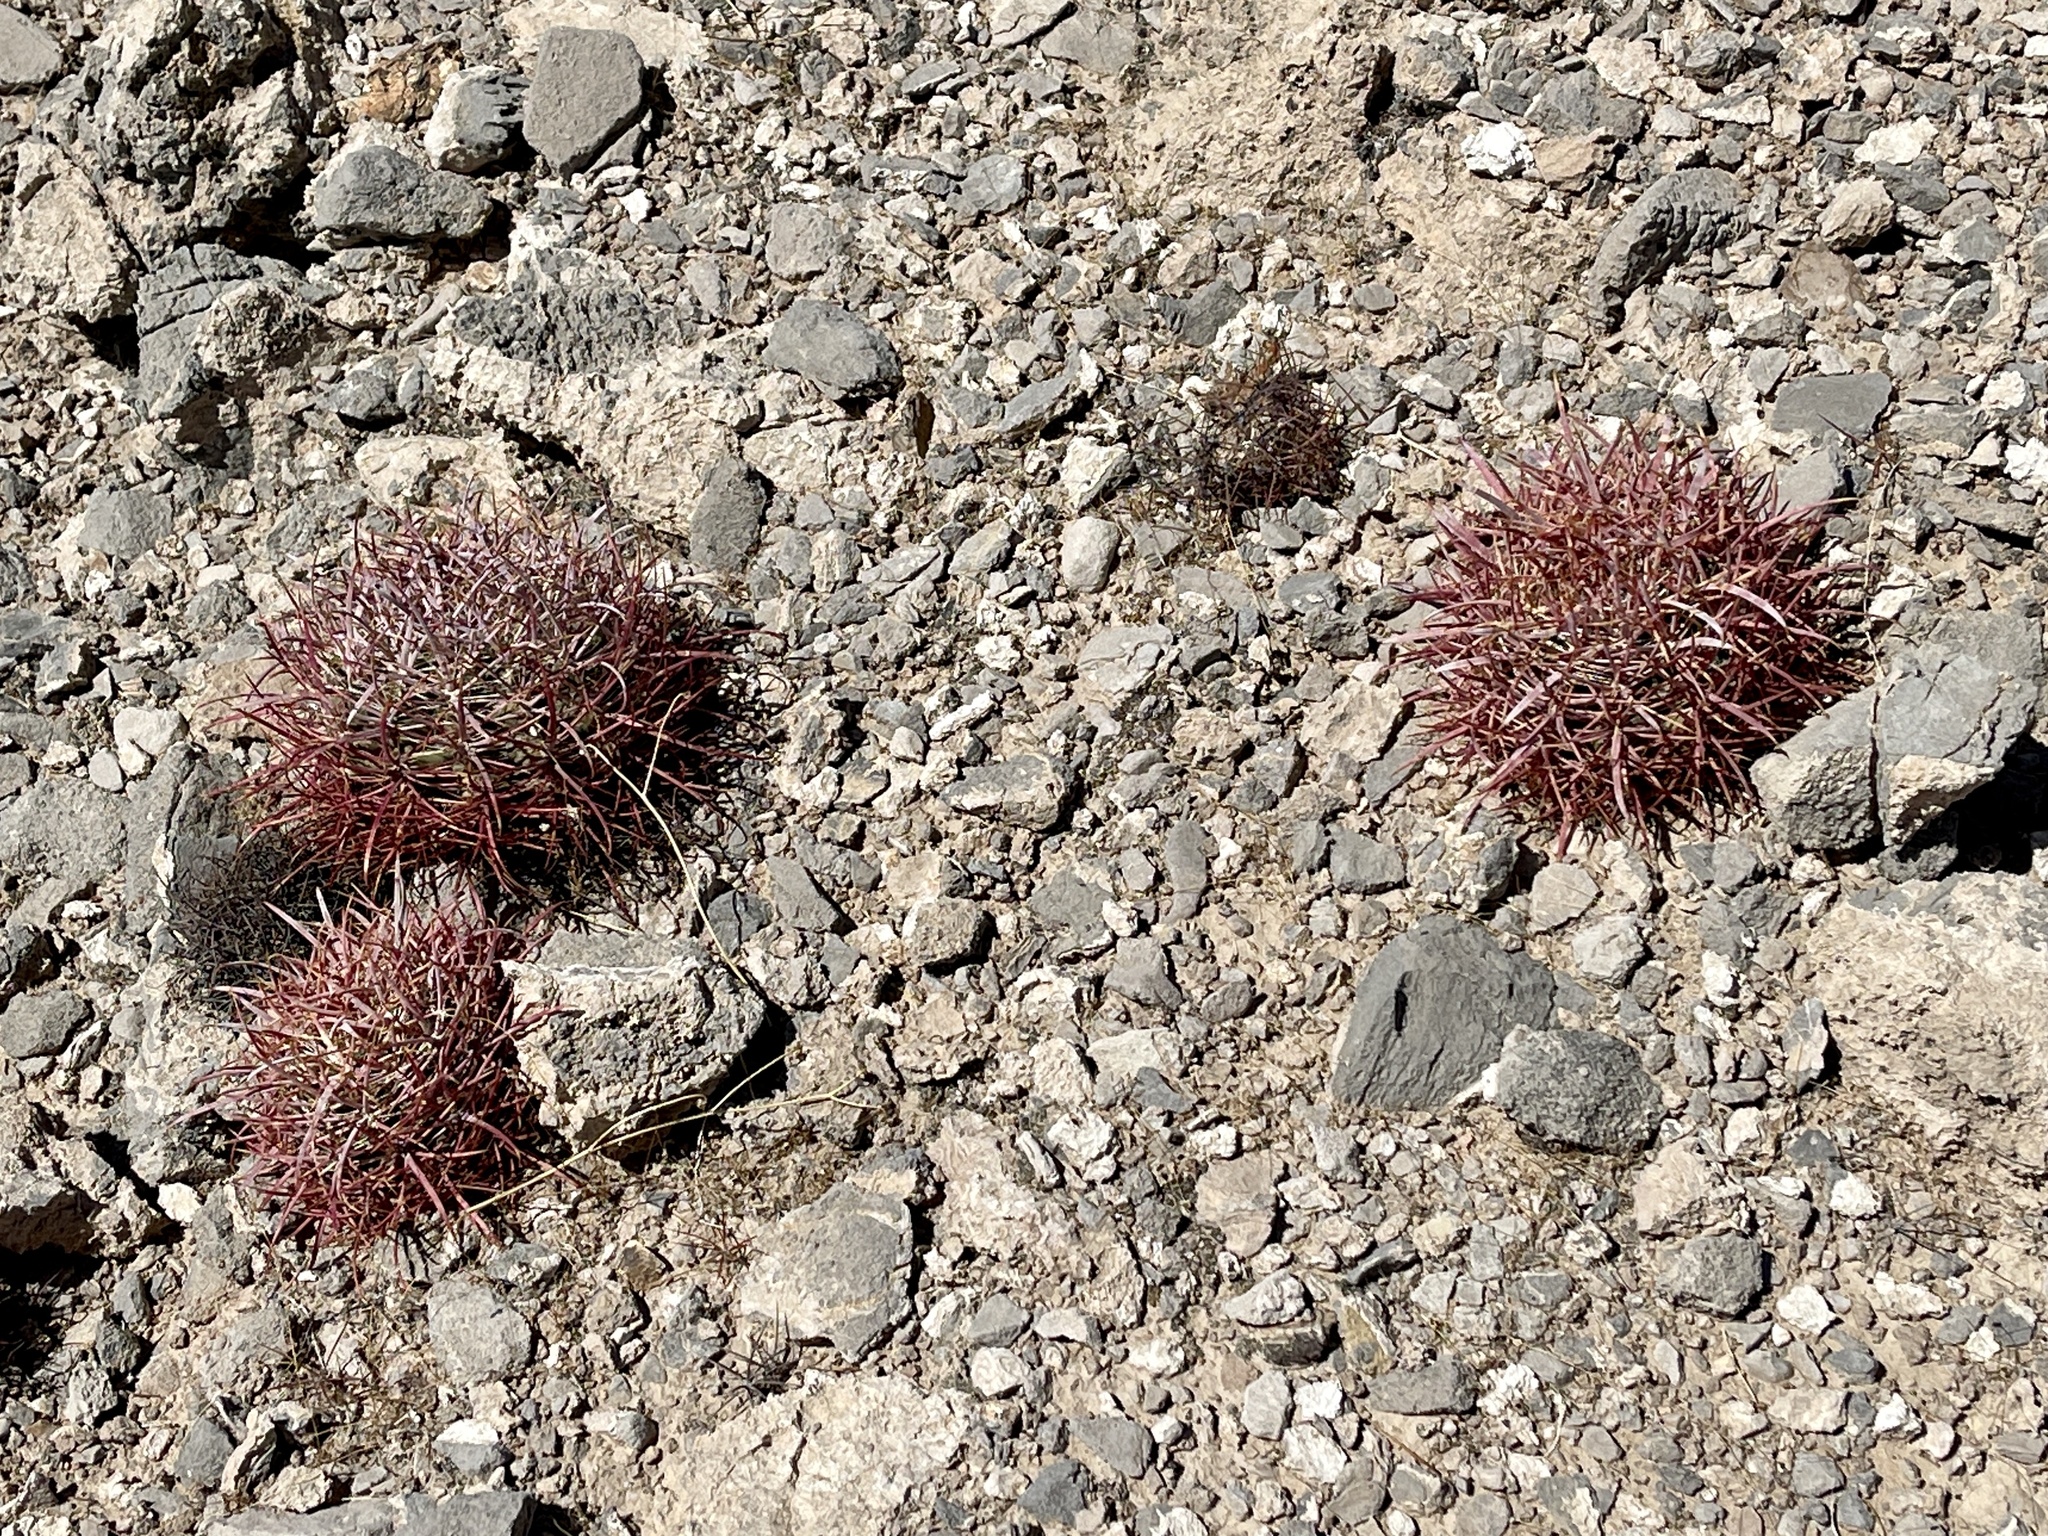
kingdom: Plantae
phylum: Tracheophyta
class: Magnoliopsida
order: Caryophyllales
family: Cactaceae
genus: Ferocactus
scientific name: Ferocactus cylindraceus
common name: California barrel cactus
